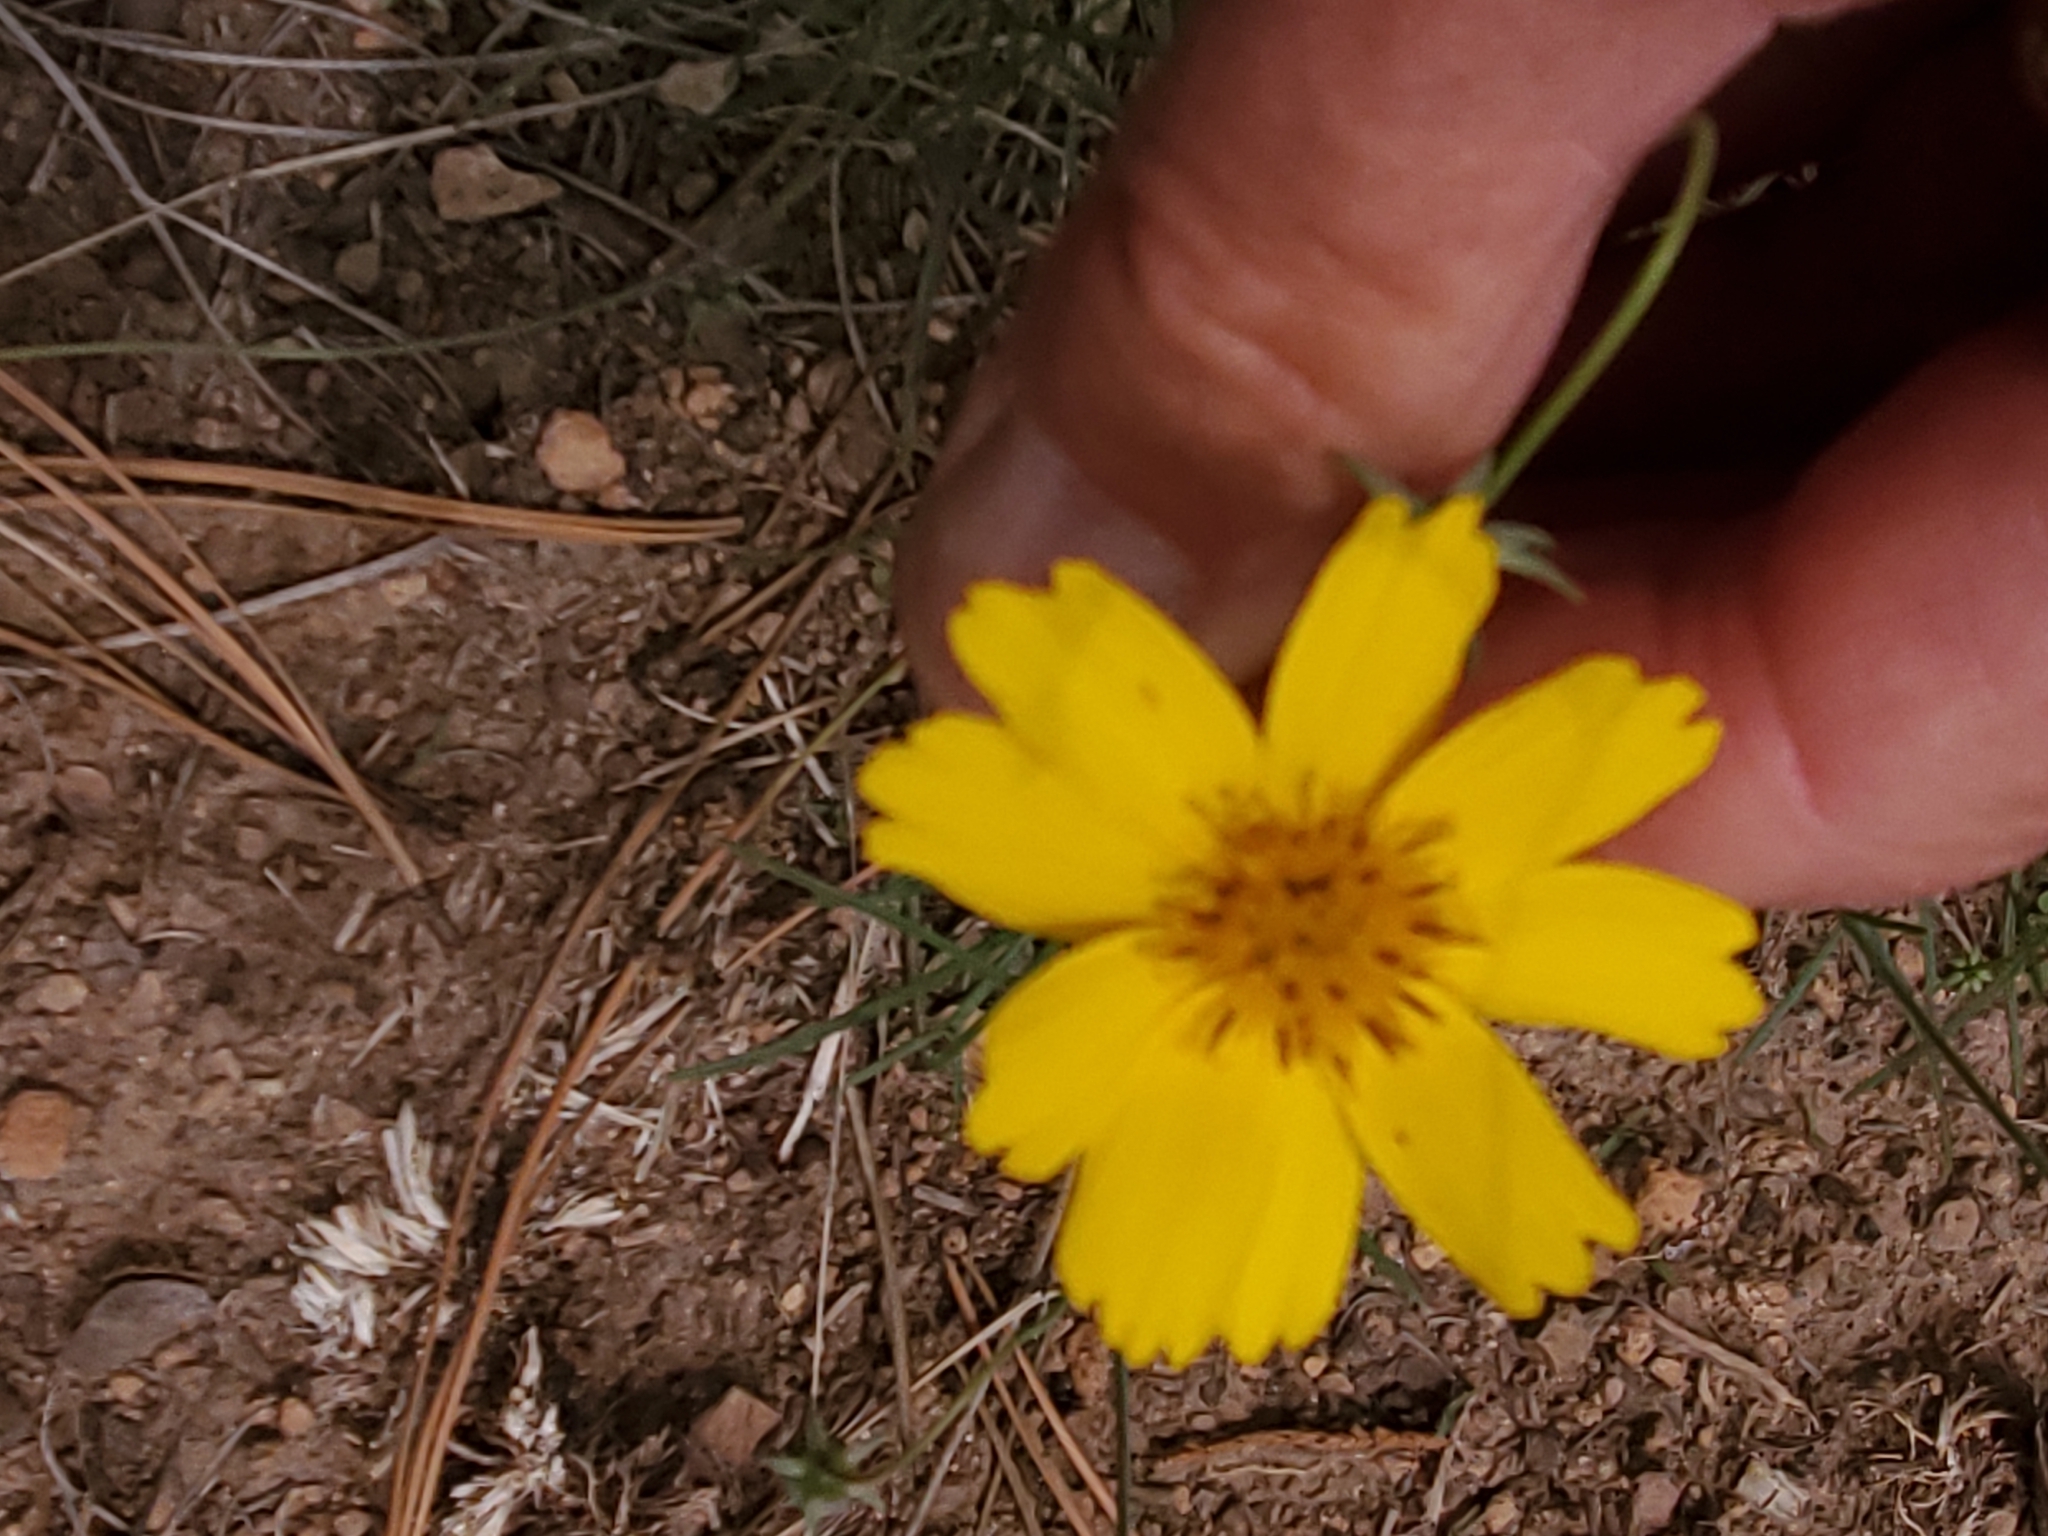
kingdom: Plantae
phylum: Tracheophyta
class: Magnoliopsida
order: Asterales
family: Asteraceae
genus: Thelesperma
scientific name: Thelesperma filifolium
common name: Stiff greenthread
